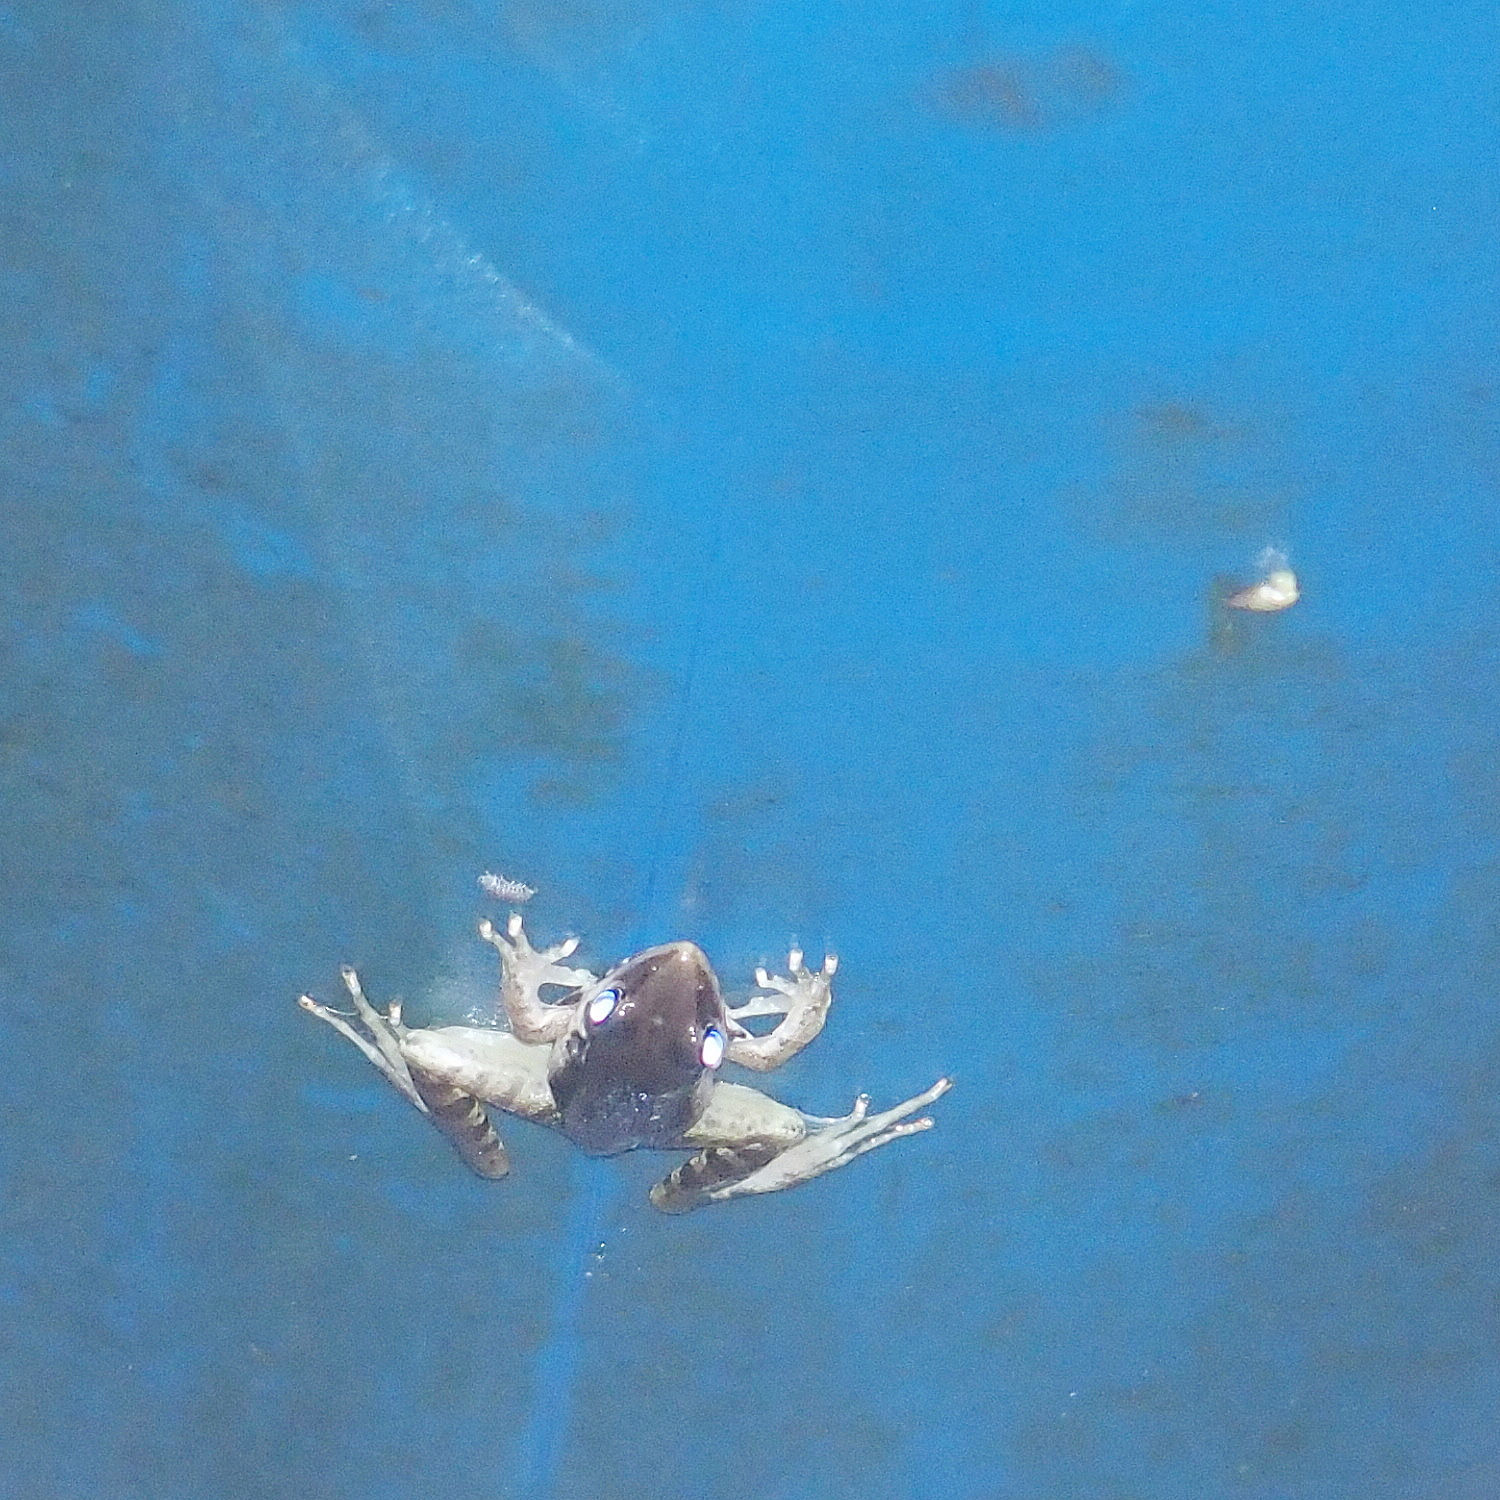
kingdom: Animalia
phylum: Chordata
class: Amphibia
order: Anura
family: Ranidae
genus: Sylvirana
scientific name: Sylvirana guentheri
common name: Guenther's amoy frog
